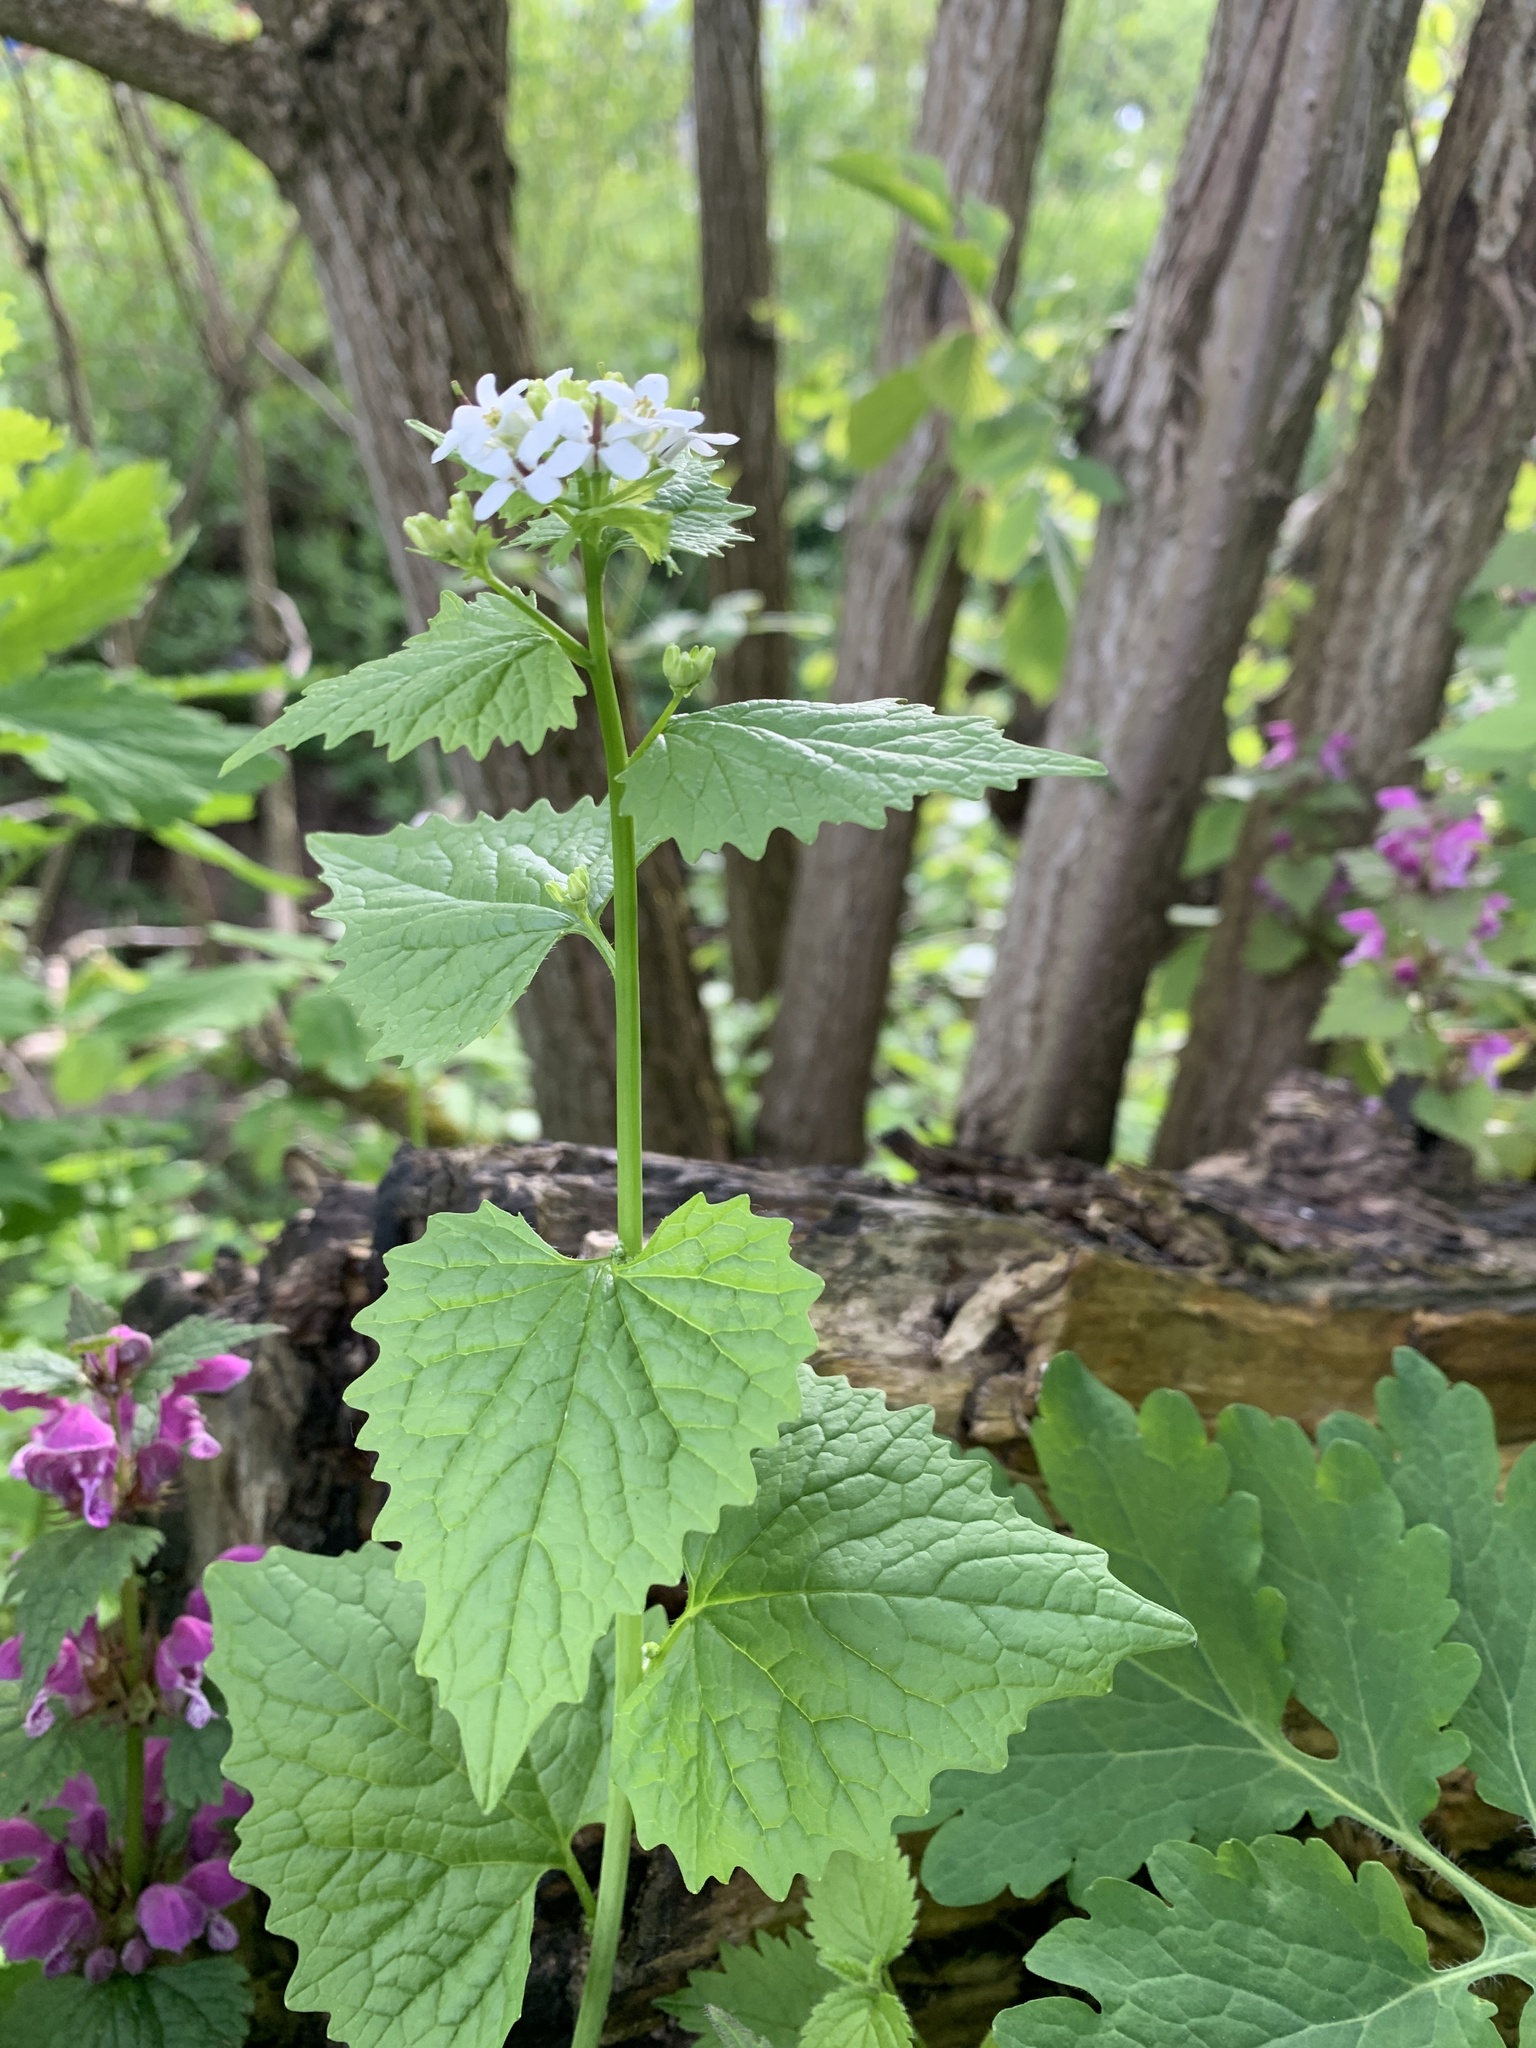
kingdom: Plantae
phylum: Tracheophyta
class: Magnoliopsida
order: Brassicales
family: Brassicaceae
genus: Alliaria
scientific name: Alliaria petiolata
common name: Garlic mustard
